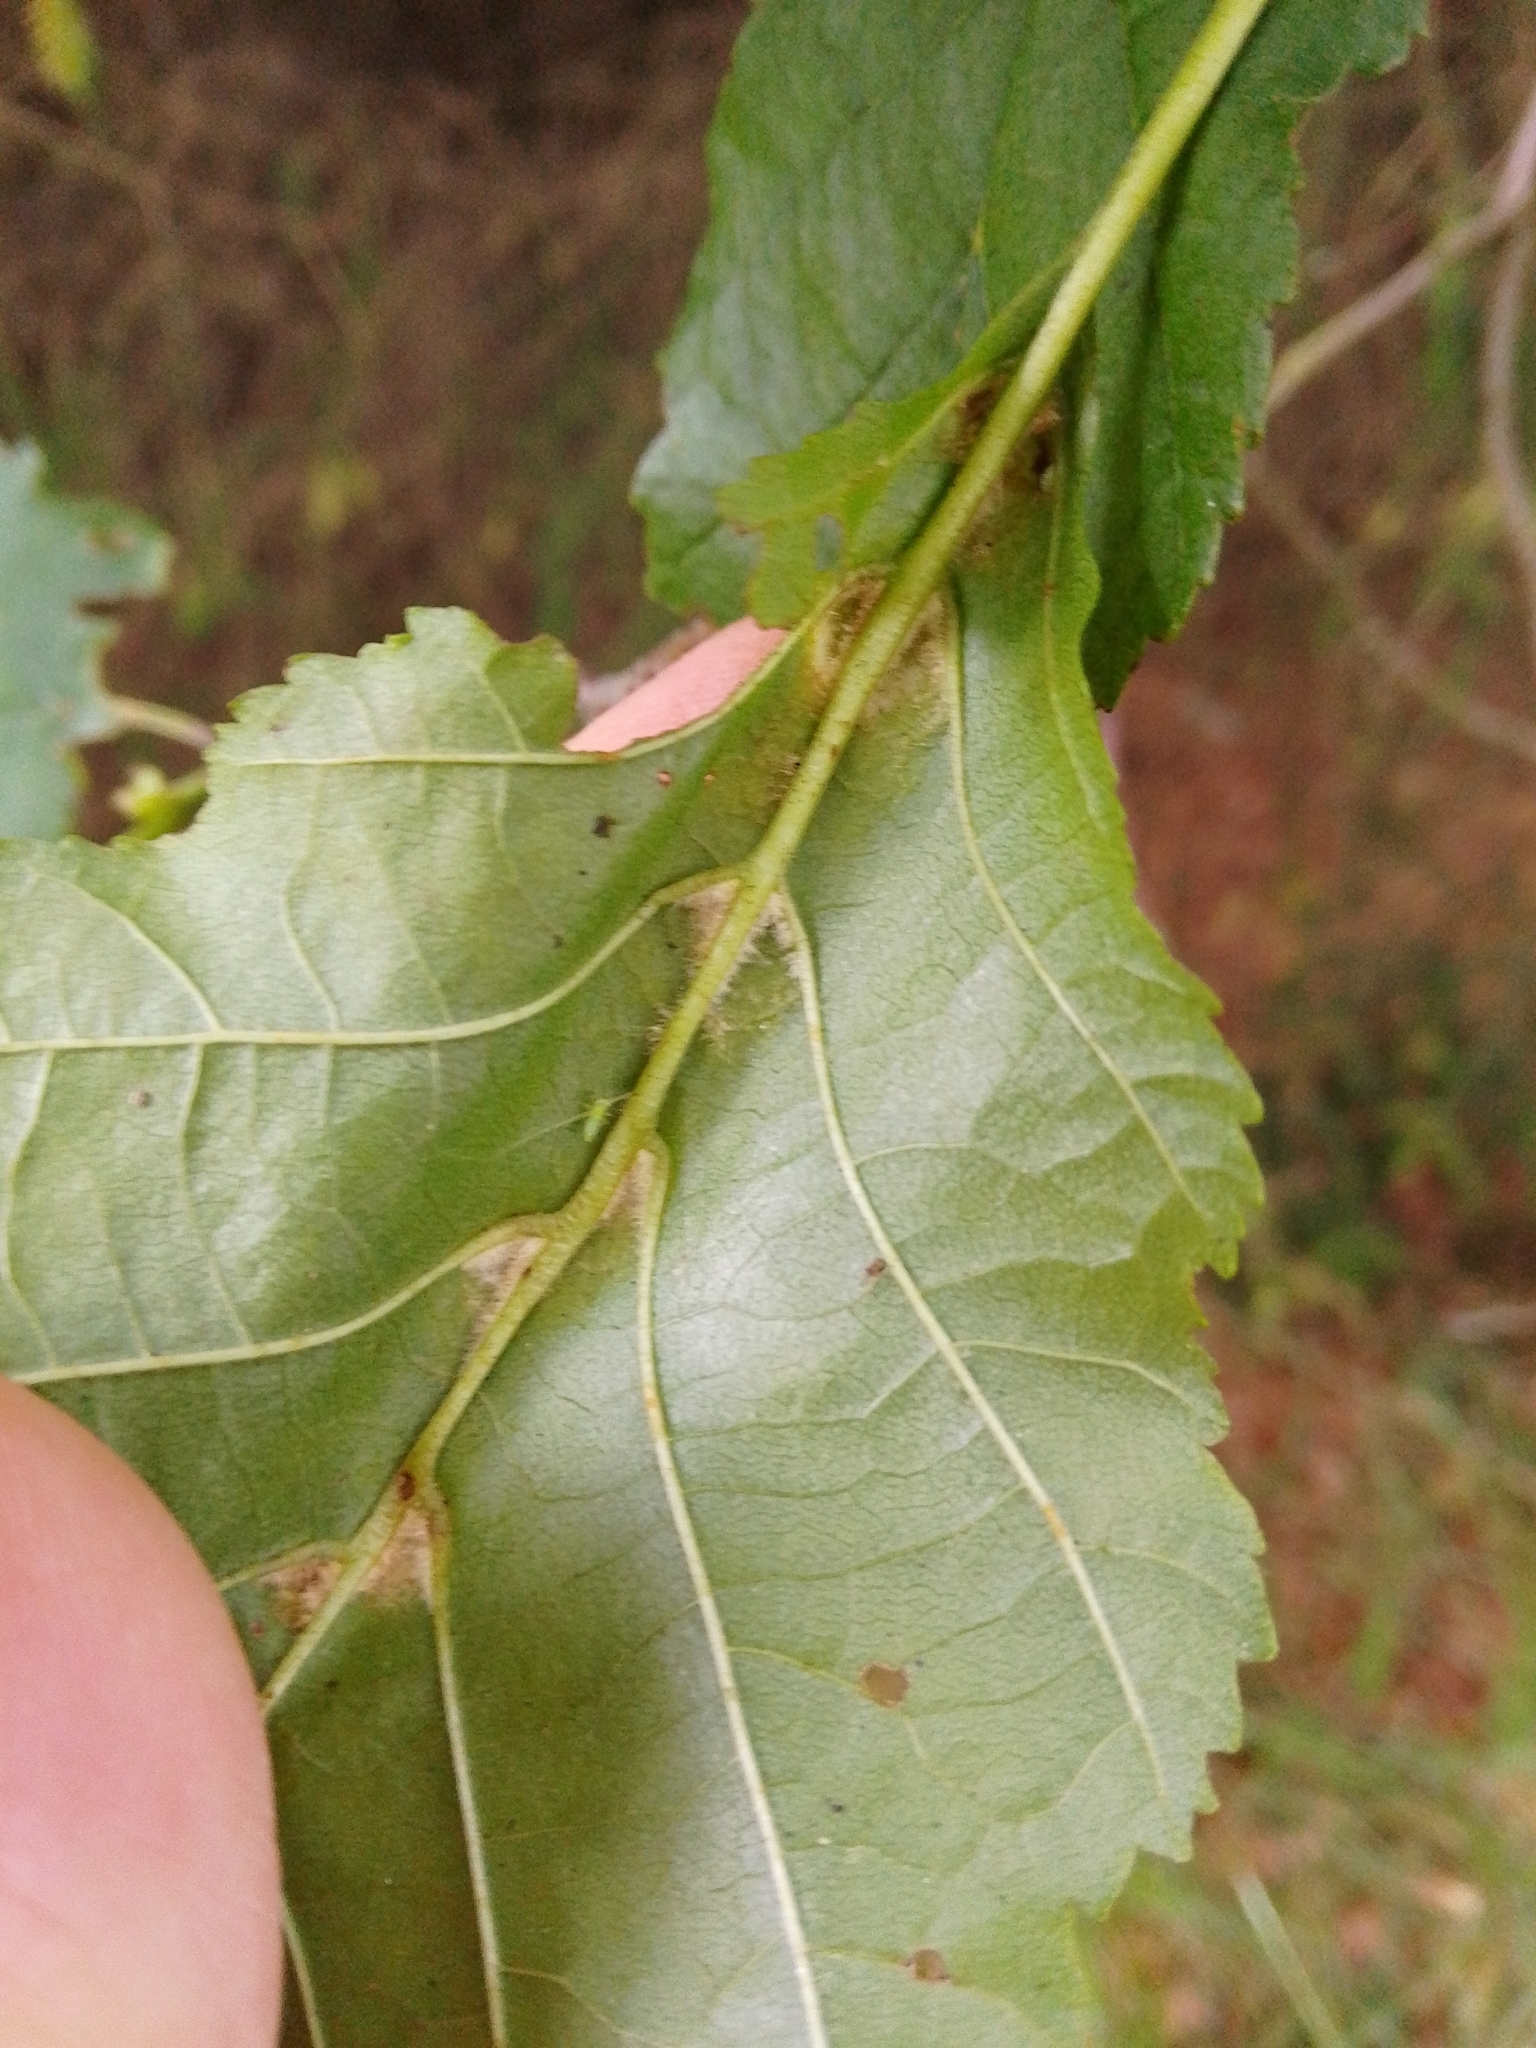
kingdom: Animalia
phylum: Arthropoda
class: Arachnida
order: Trombidiformes
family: Eriophyidae
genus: Eriophyes
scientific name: Eriophyes inangulis
